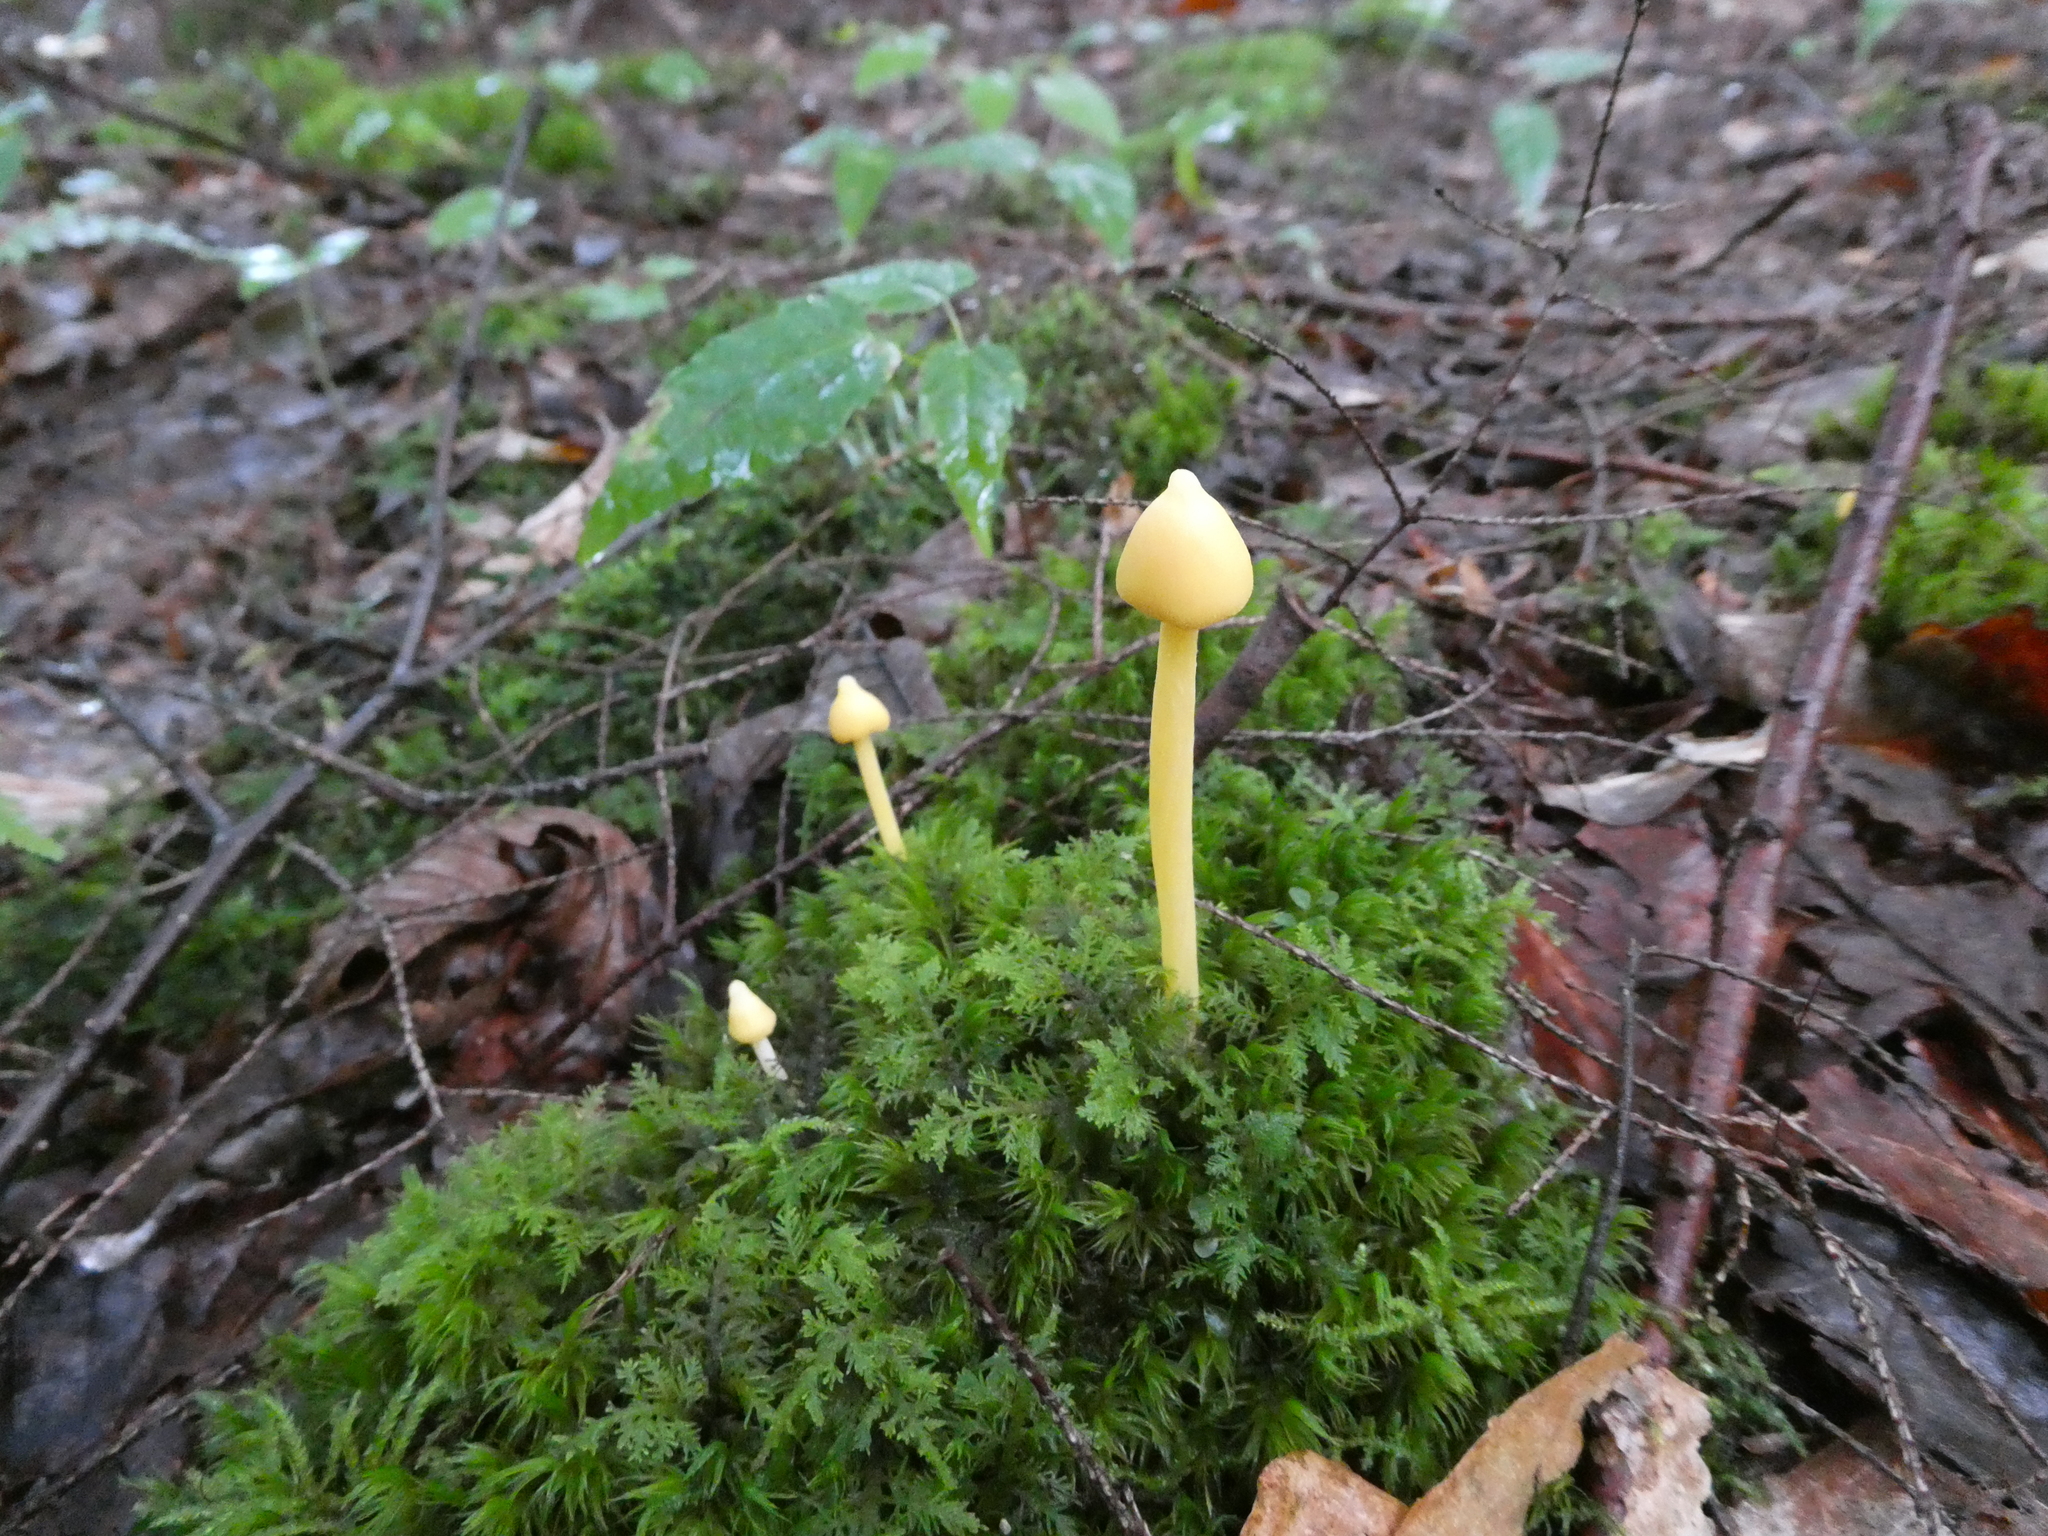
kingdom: Fungi
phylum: Basidiomycota
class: Agaricomycetes
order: Agaricales
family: Entolomataceae
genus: Entoloma
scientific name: Entoloma murrayi
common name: Yellow unicorn entoloma
